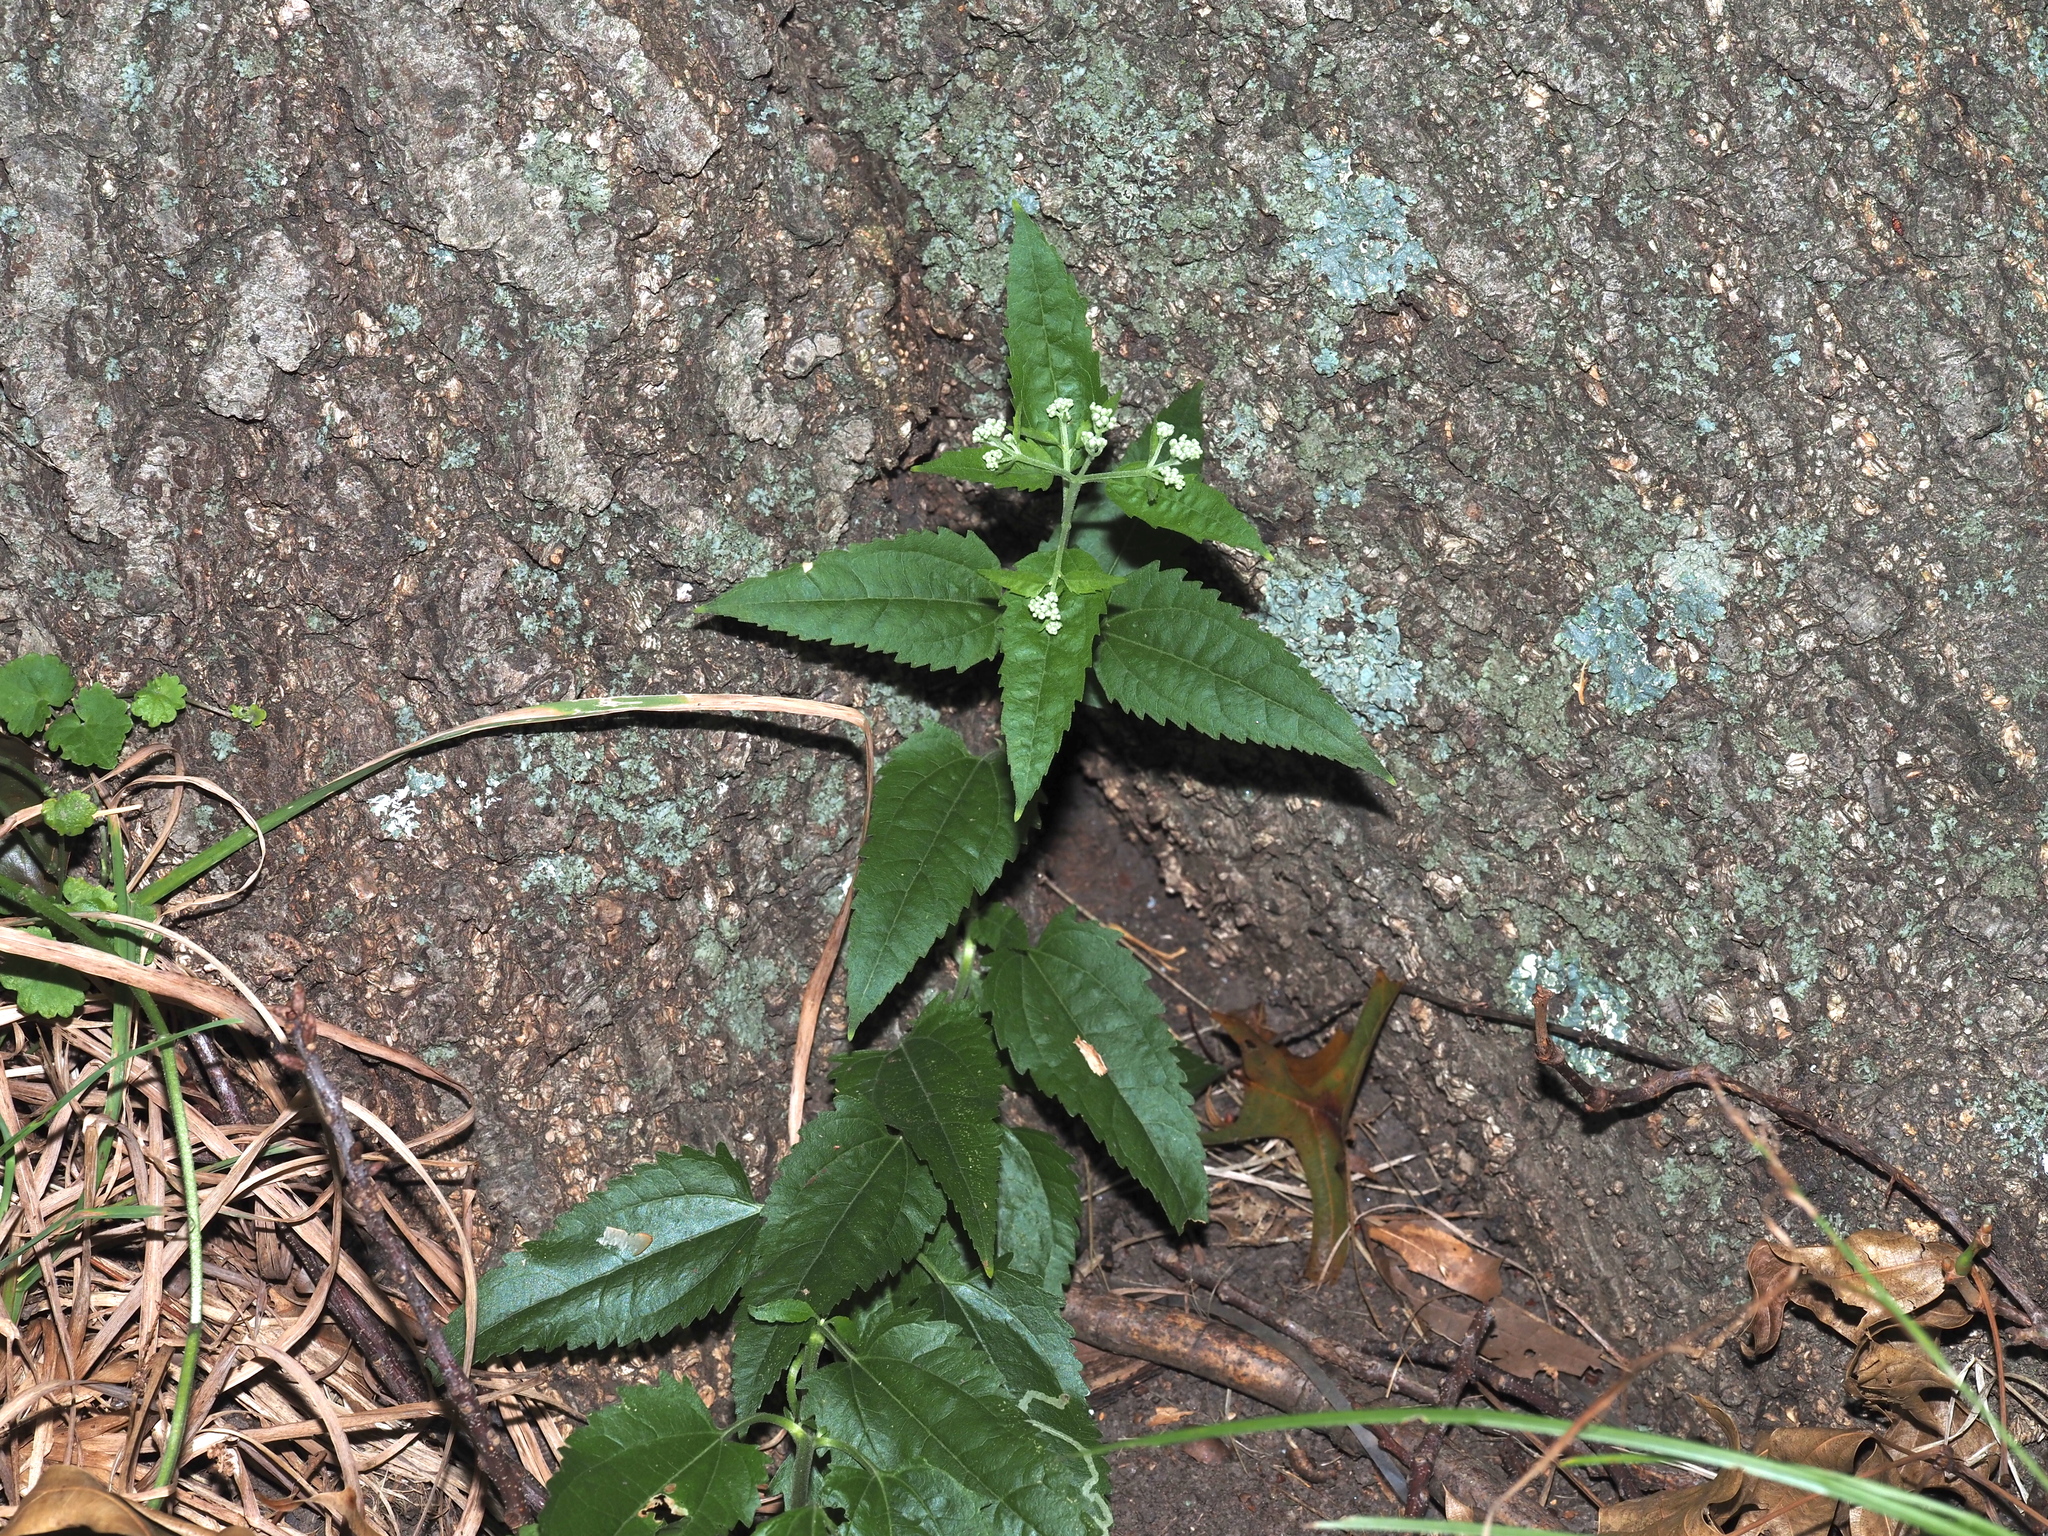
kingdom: Plantae
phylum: Tracheophyta
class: Magnoliopsida
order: Asterales
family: Asteraceae
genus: Eupatorium
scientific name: Eupatorium serotinum
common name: Late boneset
